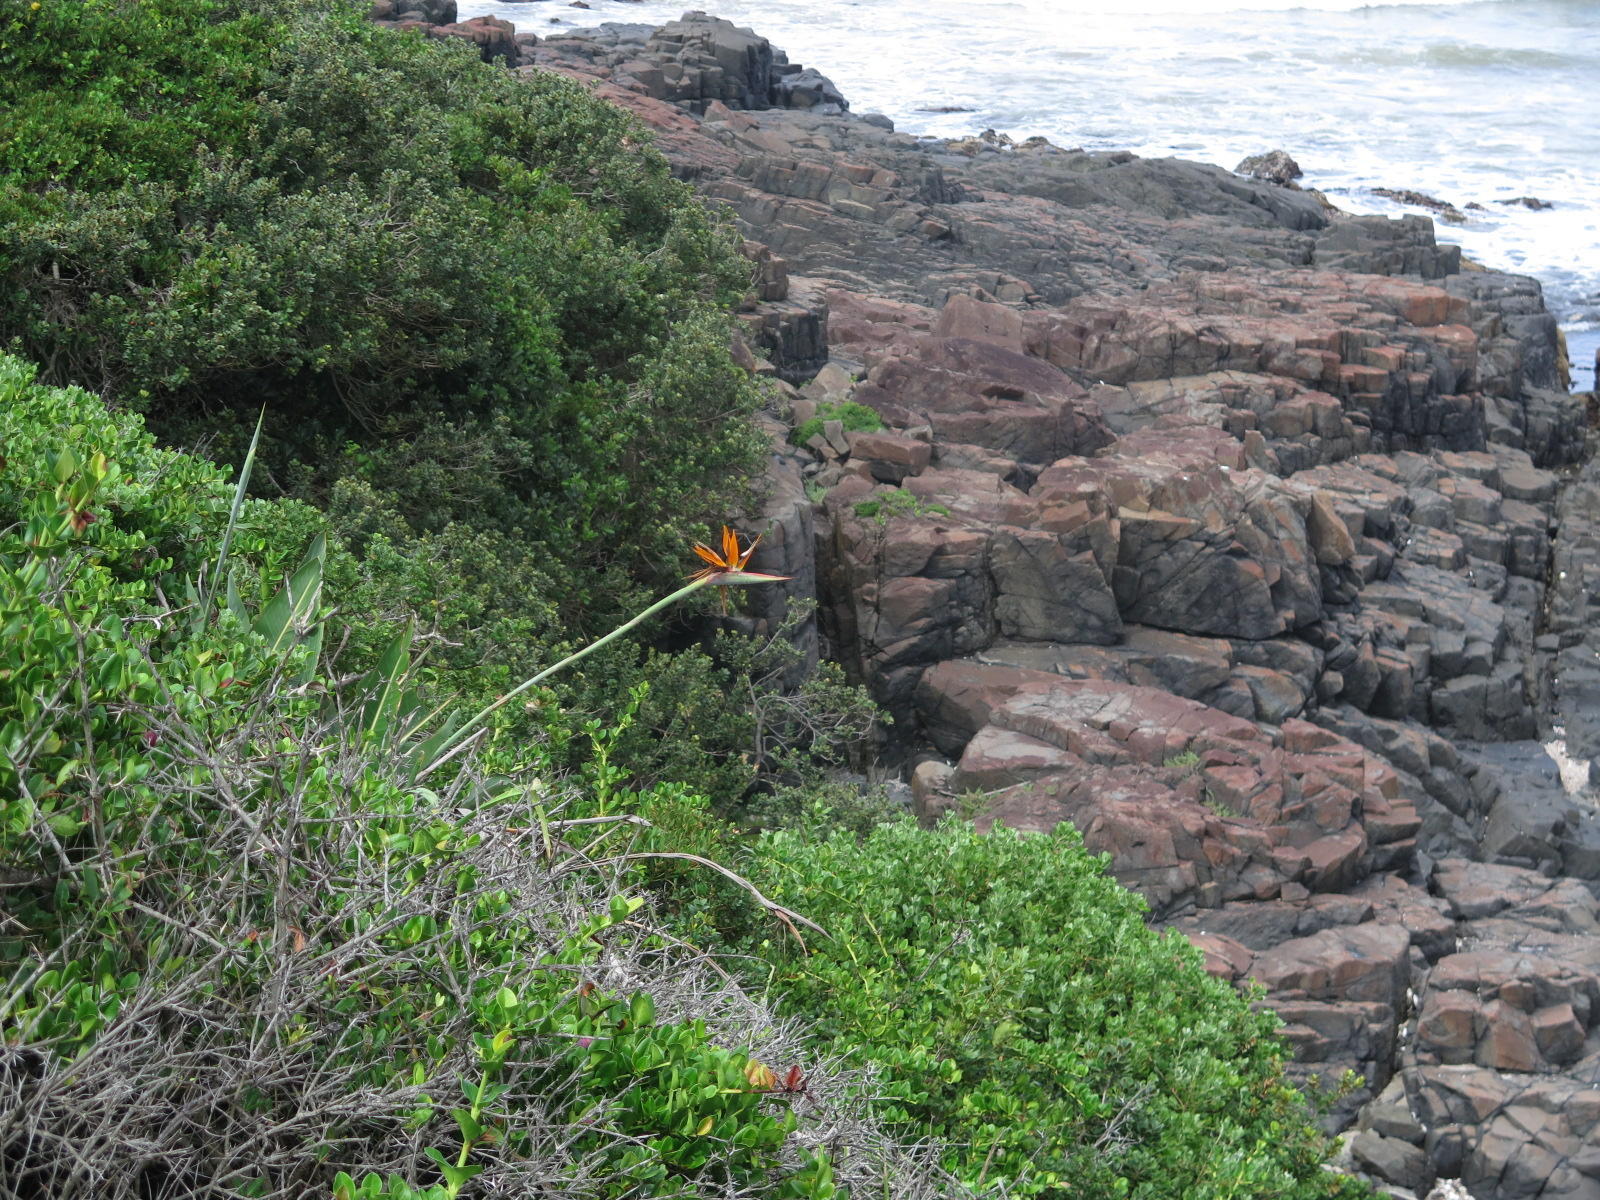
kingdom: Plantae
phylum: Tracheophyta
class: Liliopsida
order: Zingiberales
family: Strelitziaceae
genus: Strelitzia
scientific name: Strelitzia reginae
